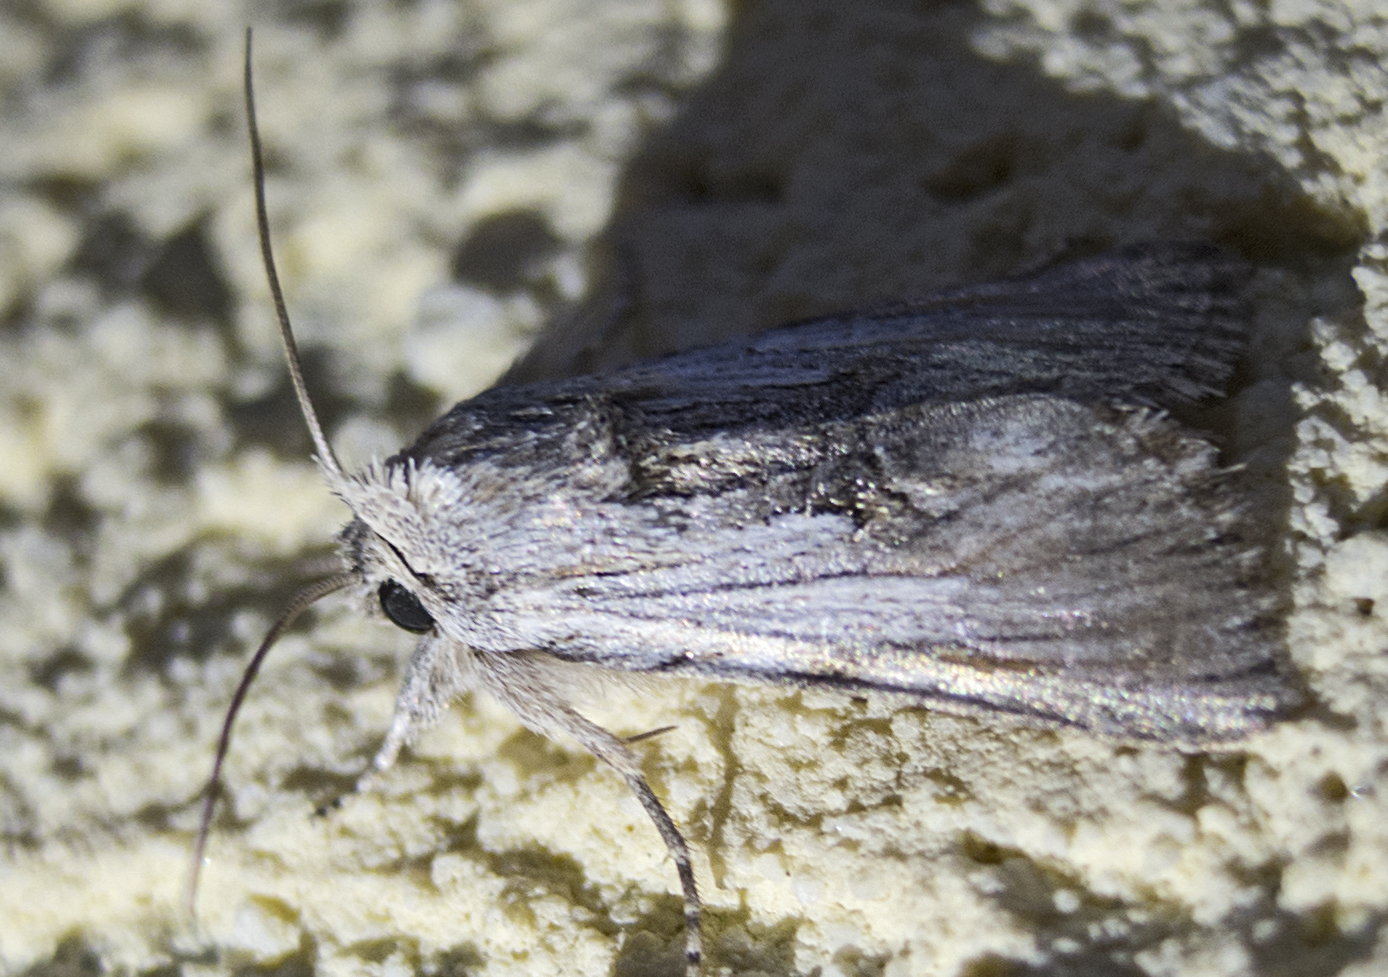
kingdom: Animalia
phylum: Arthropoda
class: Insecta
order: Lepidoptera
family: Noctuidae
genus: Calophasia
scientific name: Calophasia platyptera
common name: Antirrhinum brocade
